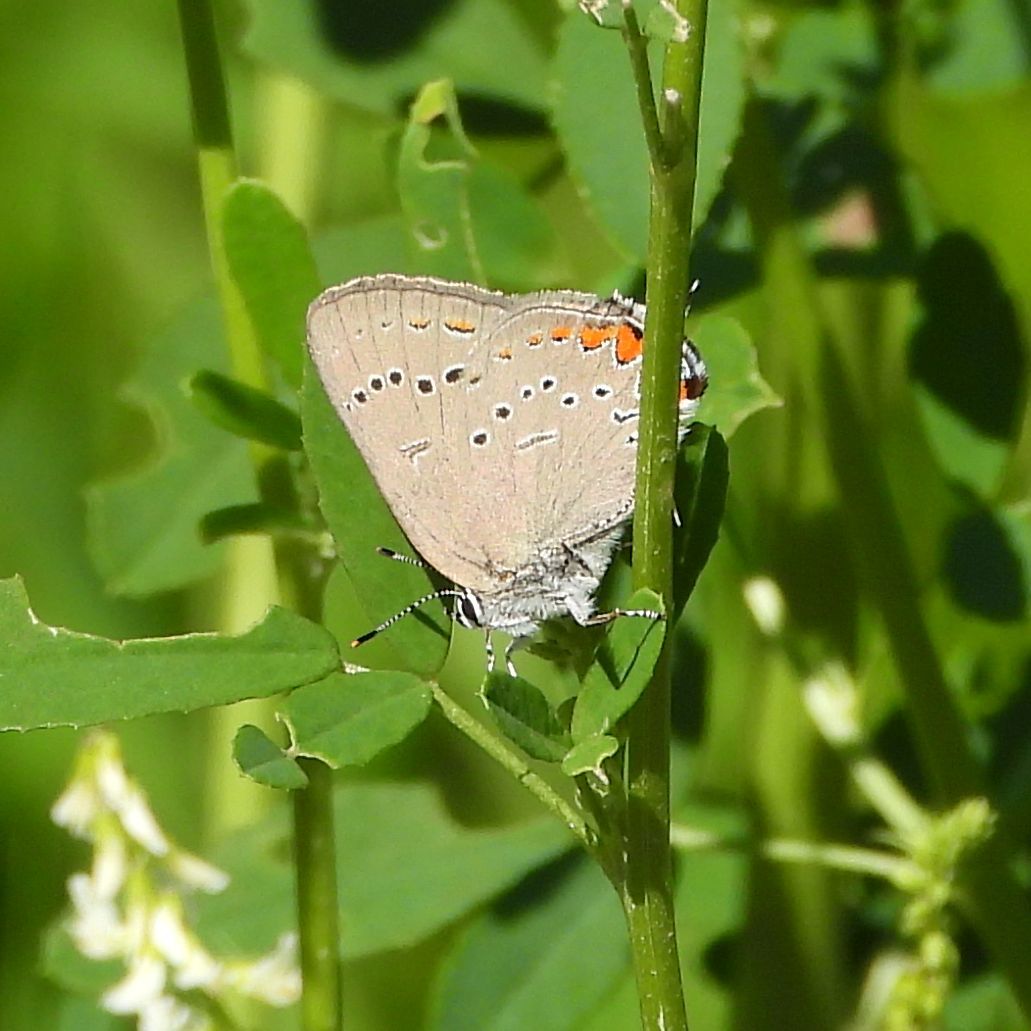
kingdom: Animalia
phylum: Arthropoda
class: Insecta
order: Lepidoptera
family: Lycaenidae
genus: Strymon
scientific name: Strymon acadica
